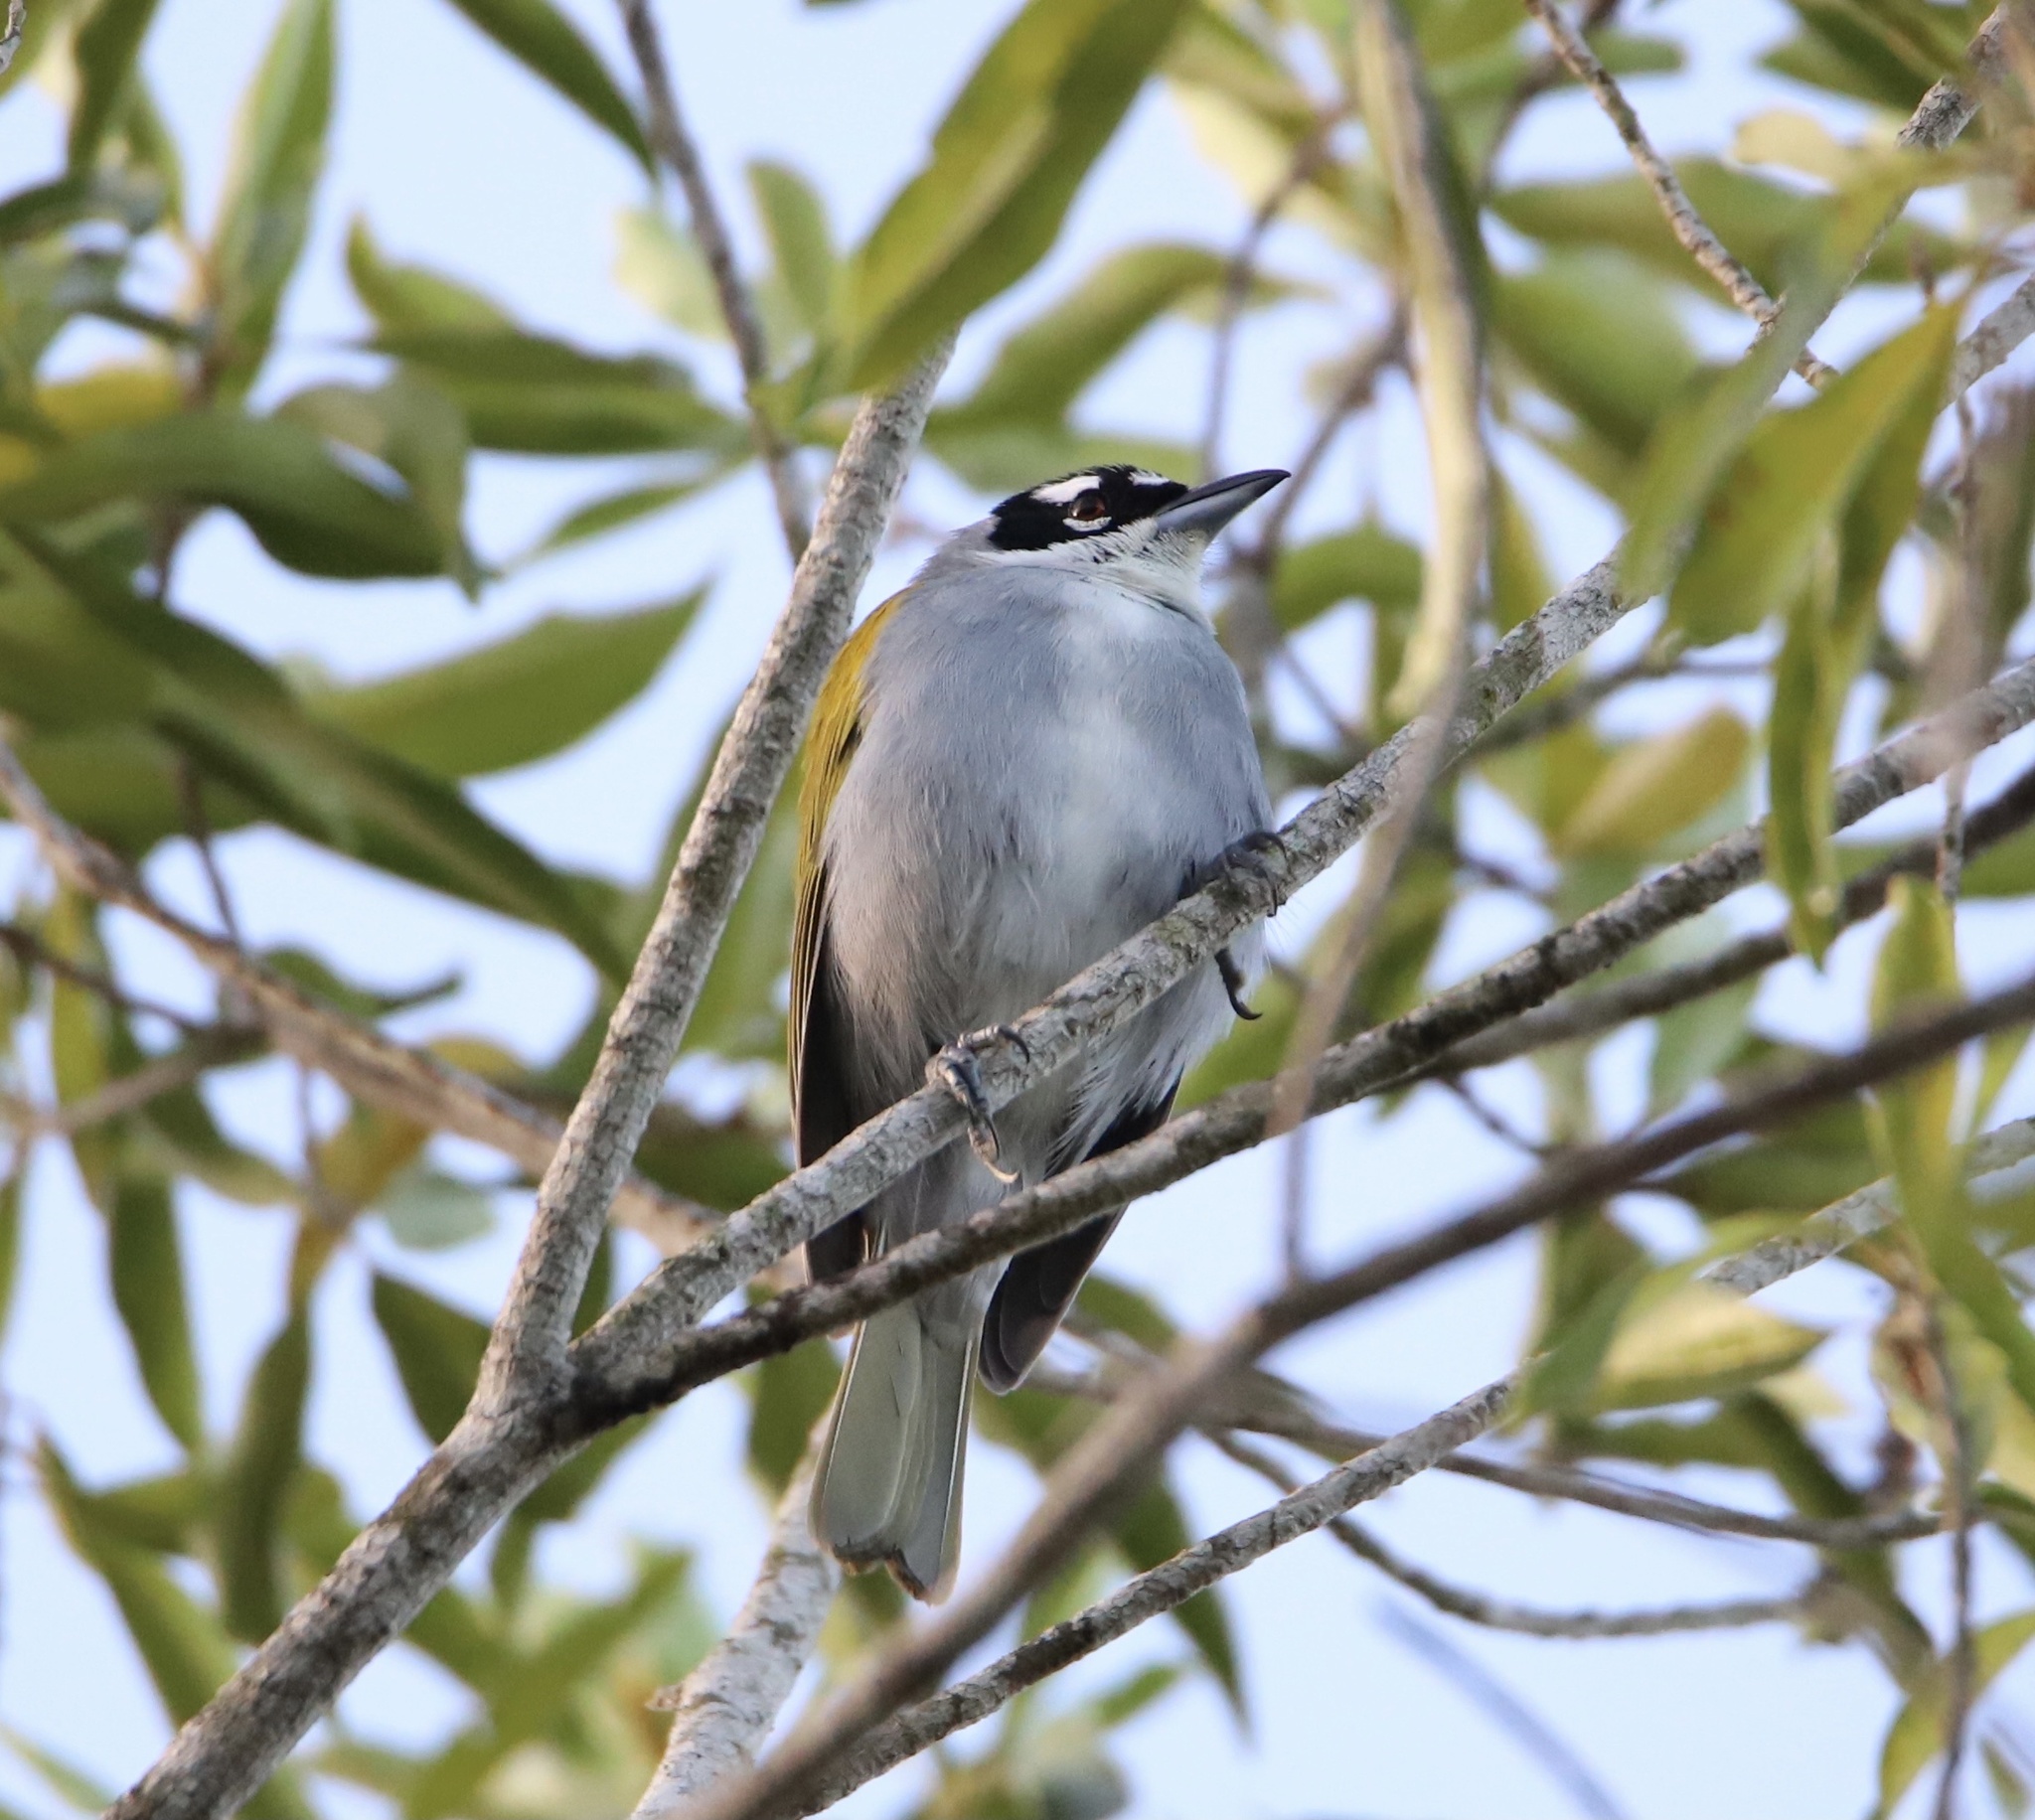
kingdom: Animalia
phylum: Chordata
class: Aves
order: Passeriformes
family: Phaenicophilidae
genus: Phaenicophilus
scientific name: Phaenicophilus palmarum
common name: Black-crowned palm-tanager
